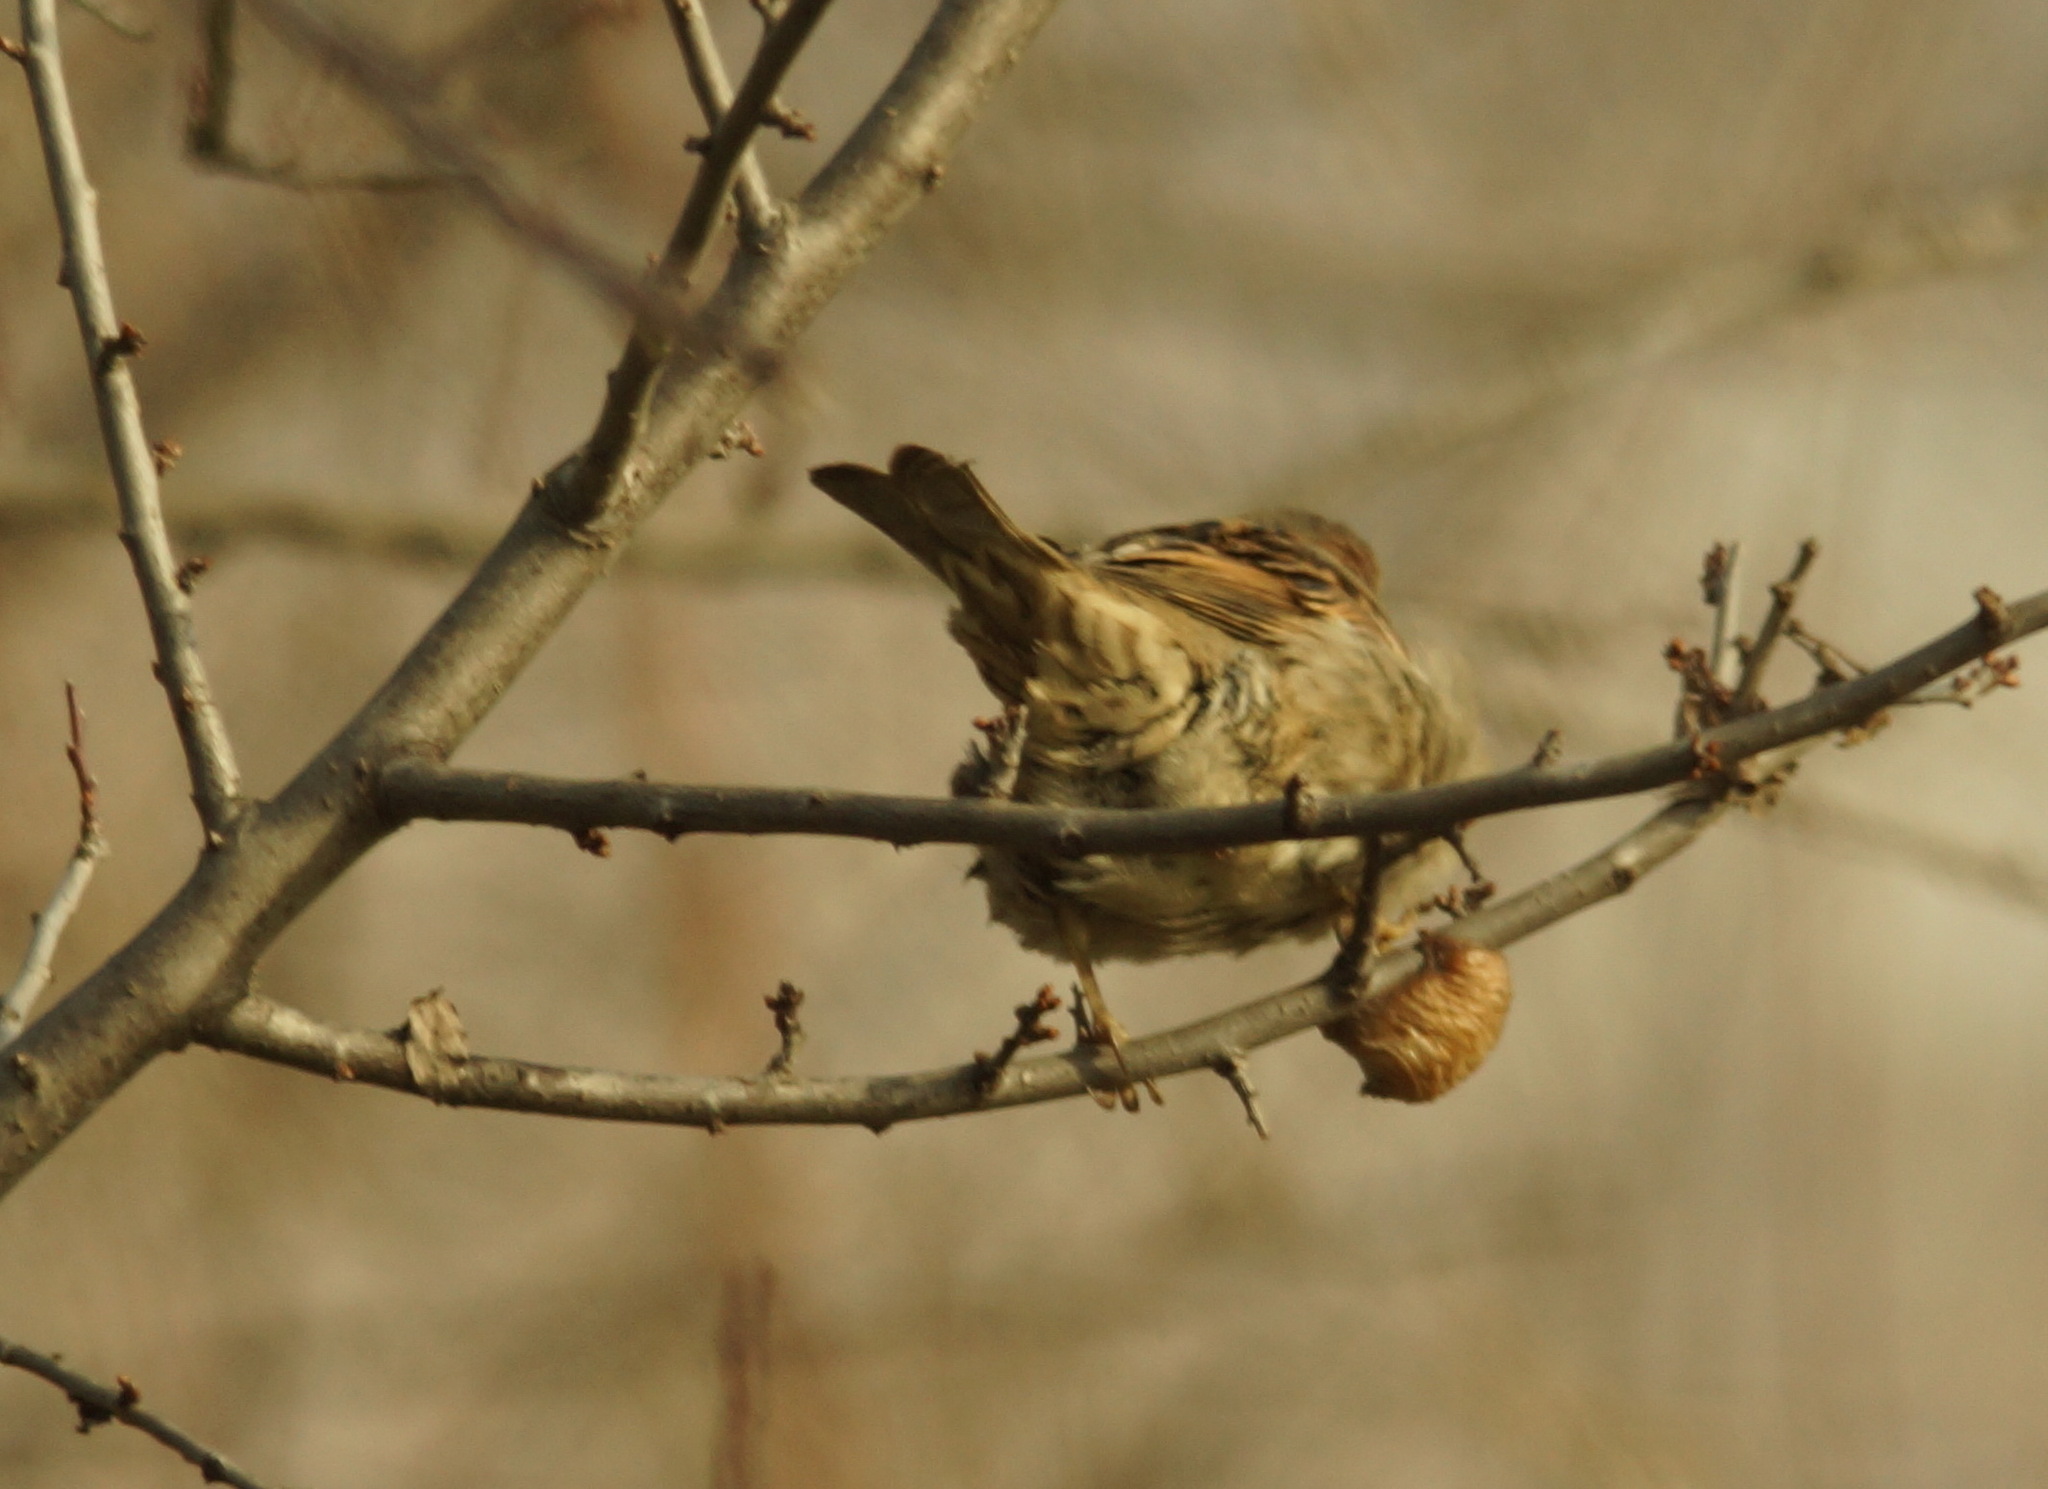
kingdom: Animalia
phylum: Chordata
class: Aves
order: Passeriformes
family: Passeridae
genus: Passer
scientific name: Passer domesticus
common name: House sparrow
